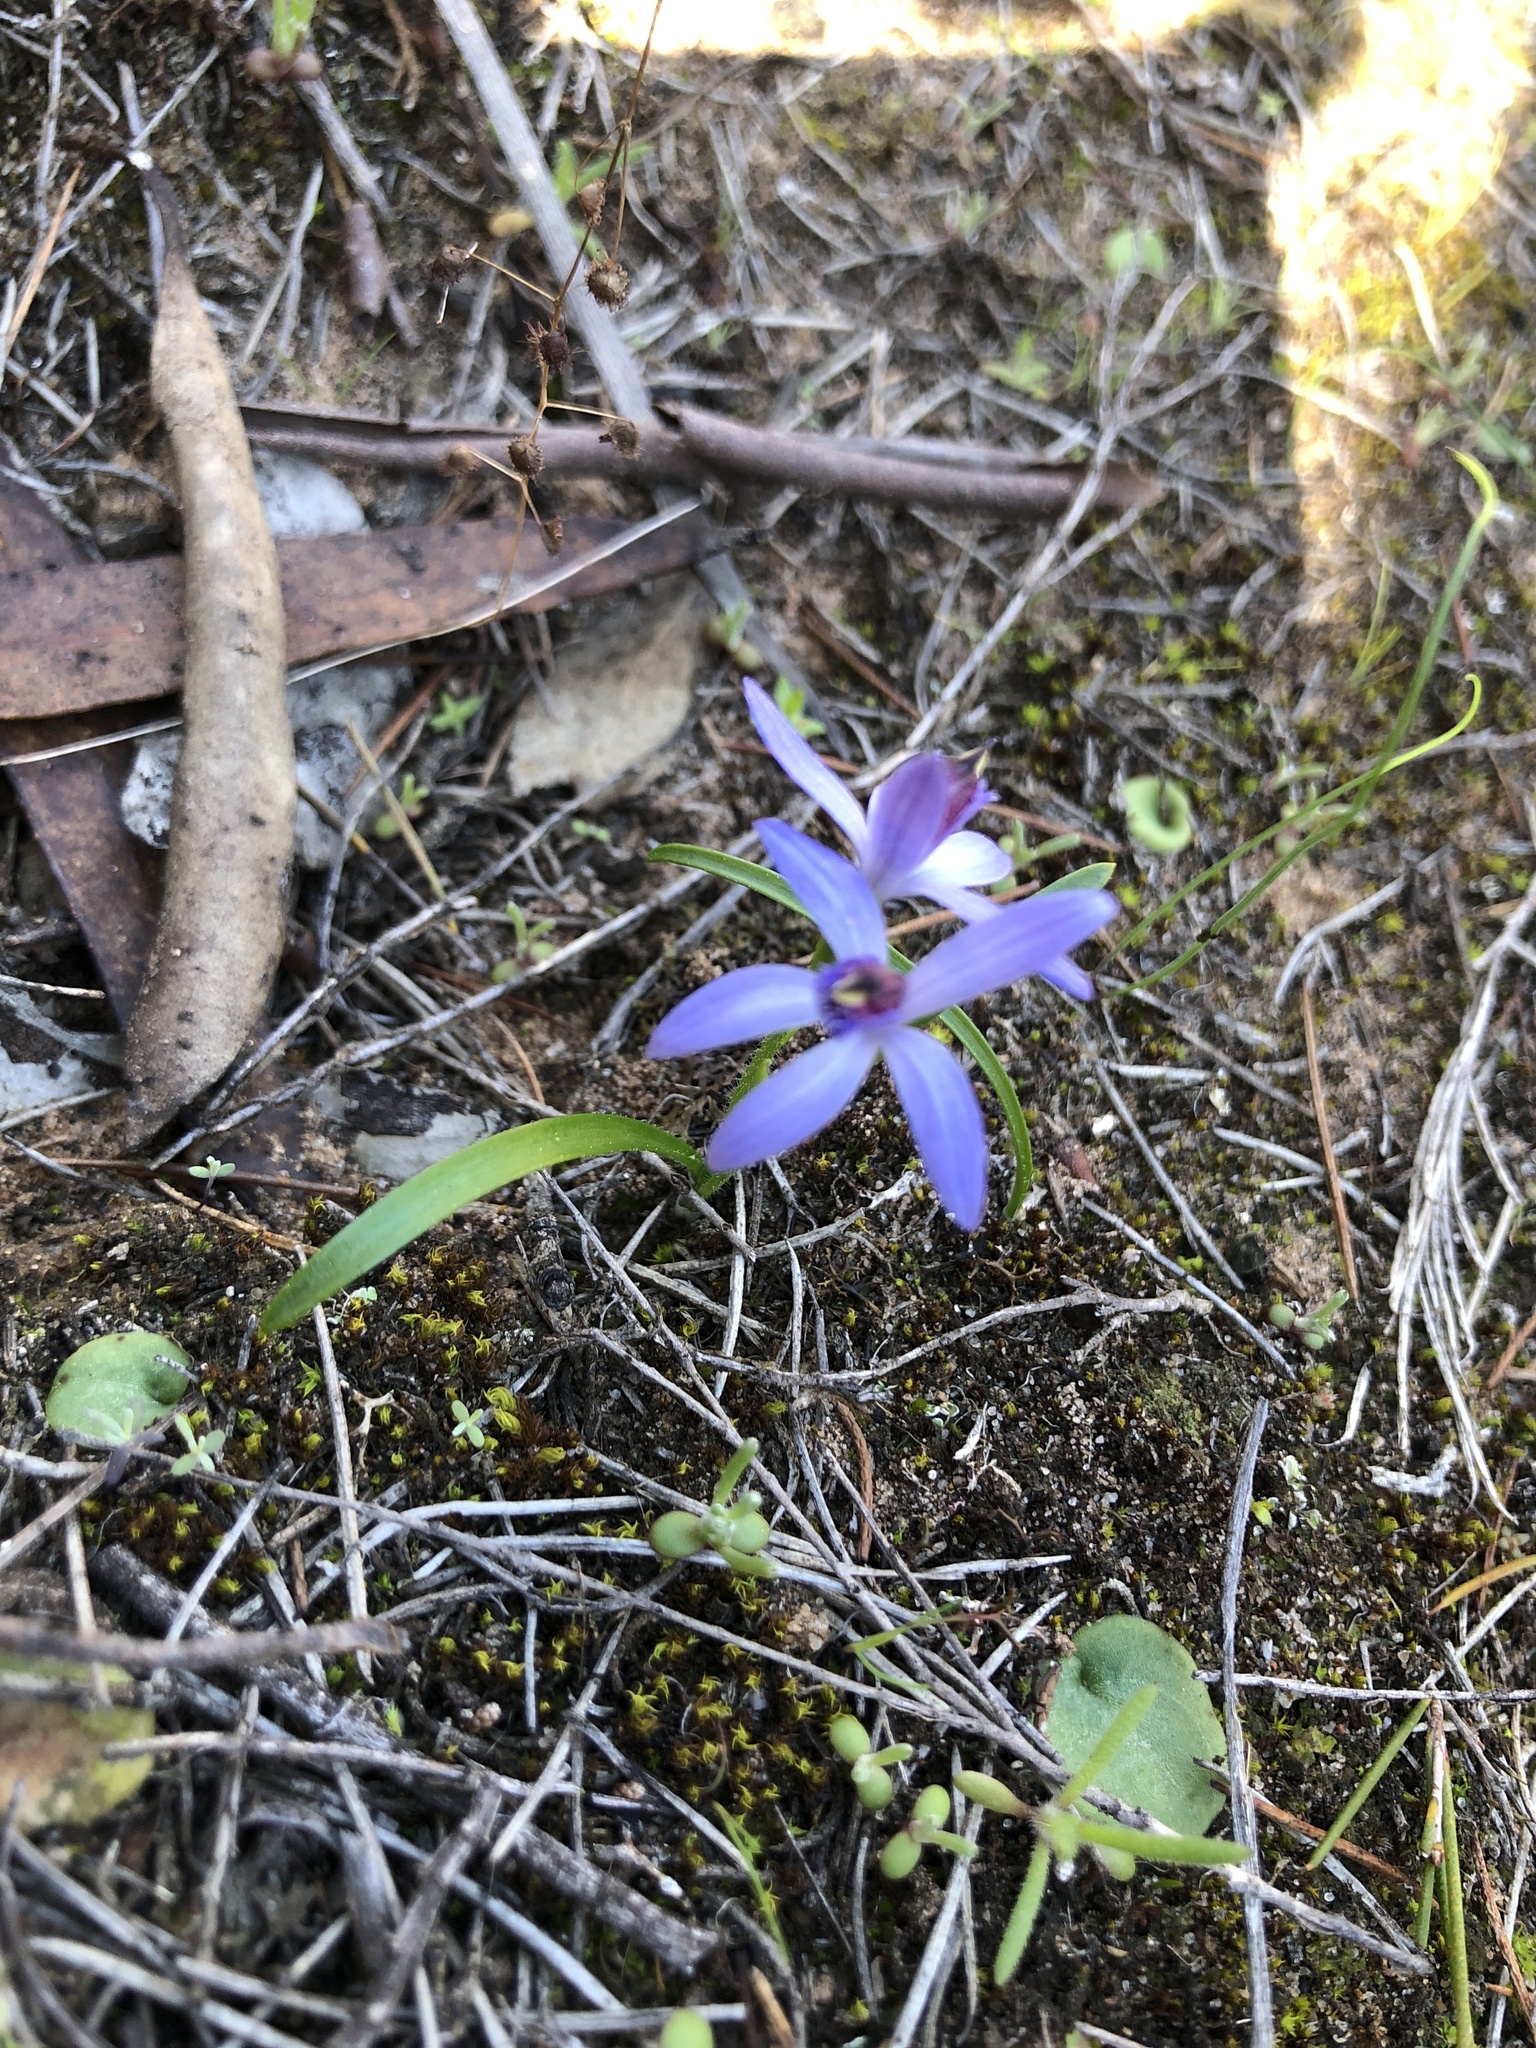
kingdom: Plantae
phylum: Tracheophyta
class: Liliopsida
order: Asparagales
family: Orchidaceae
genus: Pheladenia
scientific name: Pheladenia deformis
